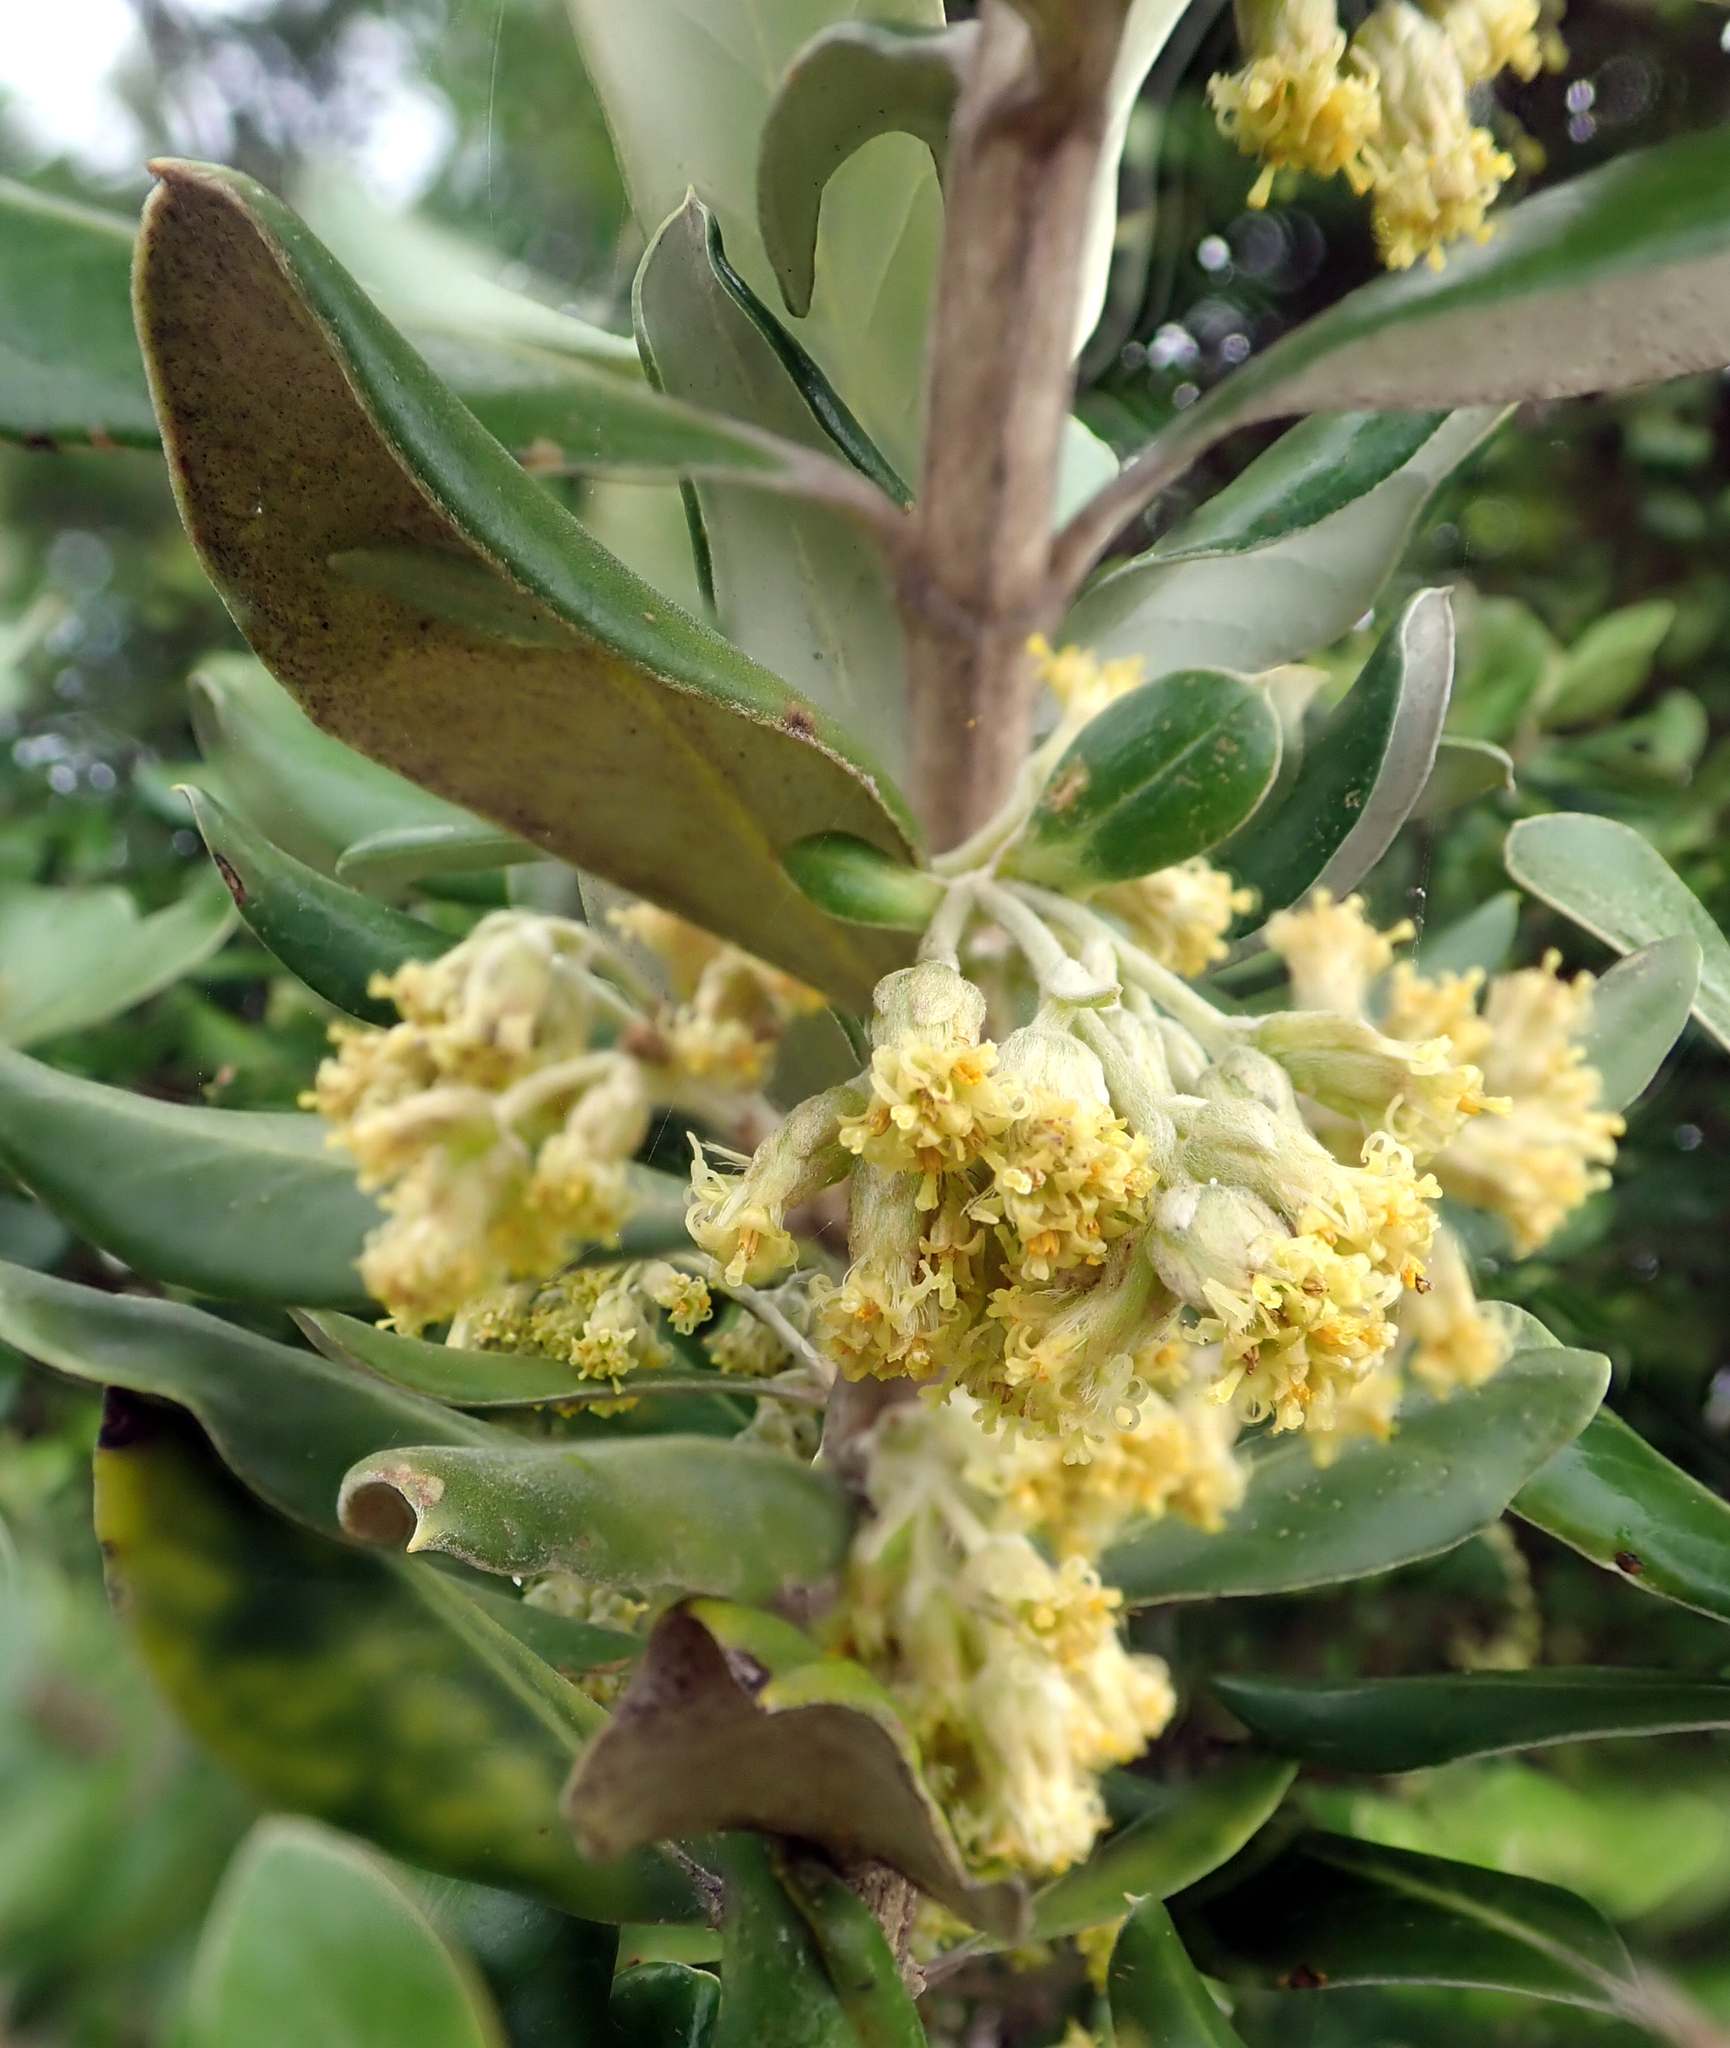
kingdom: Plantae
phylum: Tracheophyta
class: Magnoliopsida
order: Asterales
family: Asteraceae
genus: Olearia
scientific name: Olearia traversiorum
